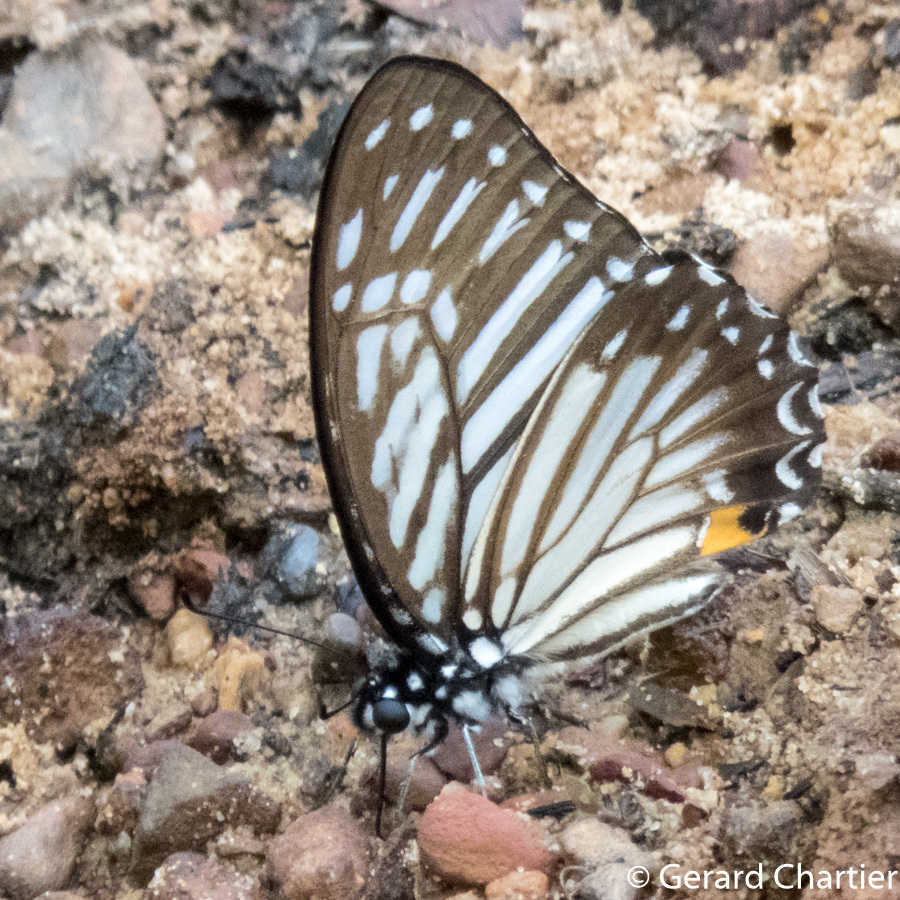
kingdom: Animalia
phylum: Arthropoda
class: Insecta
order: Lepidoptera
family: Papilionidae
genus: Graphium
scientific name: Graphium xenocles
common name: Great zebra
